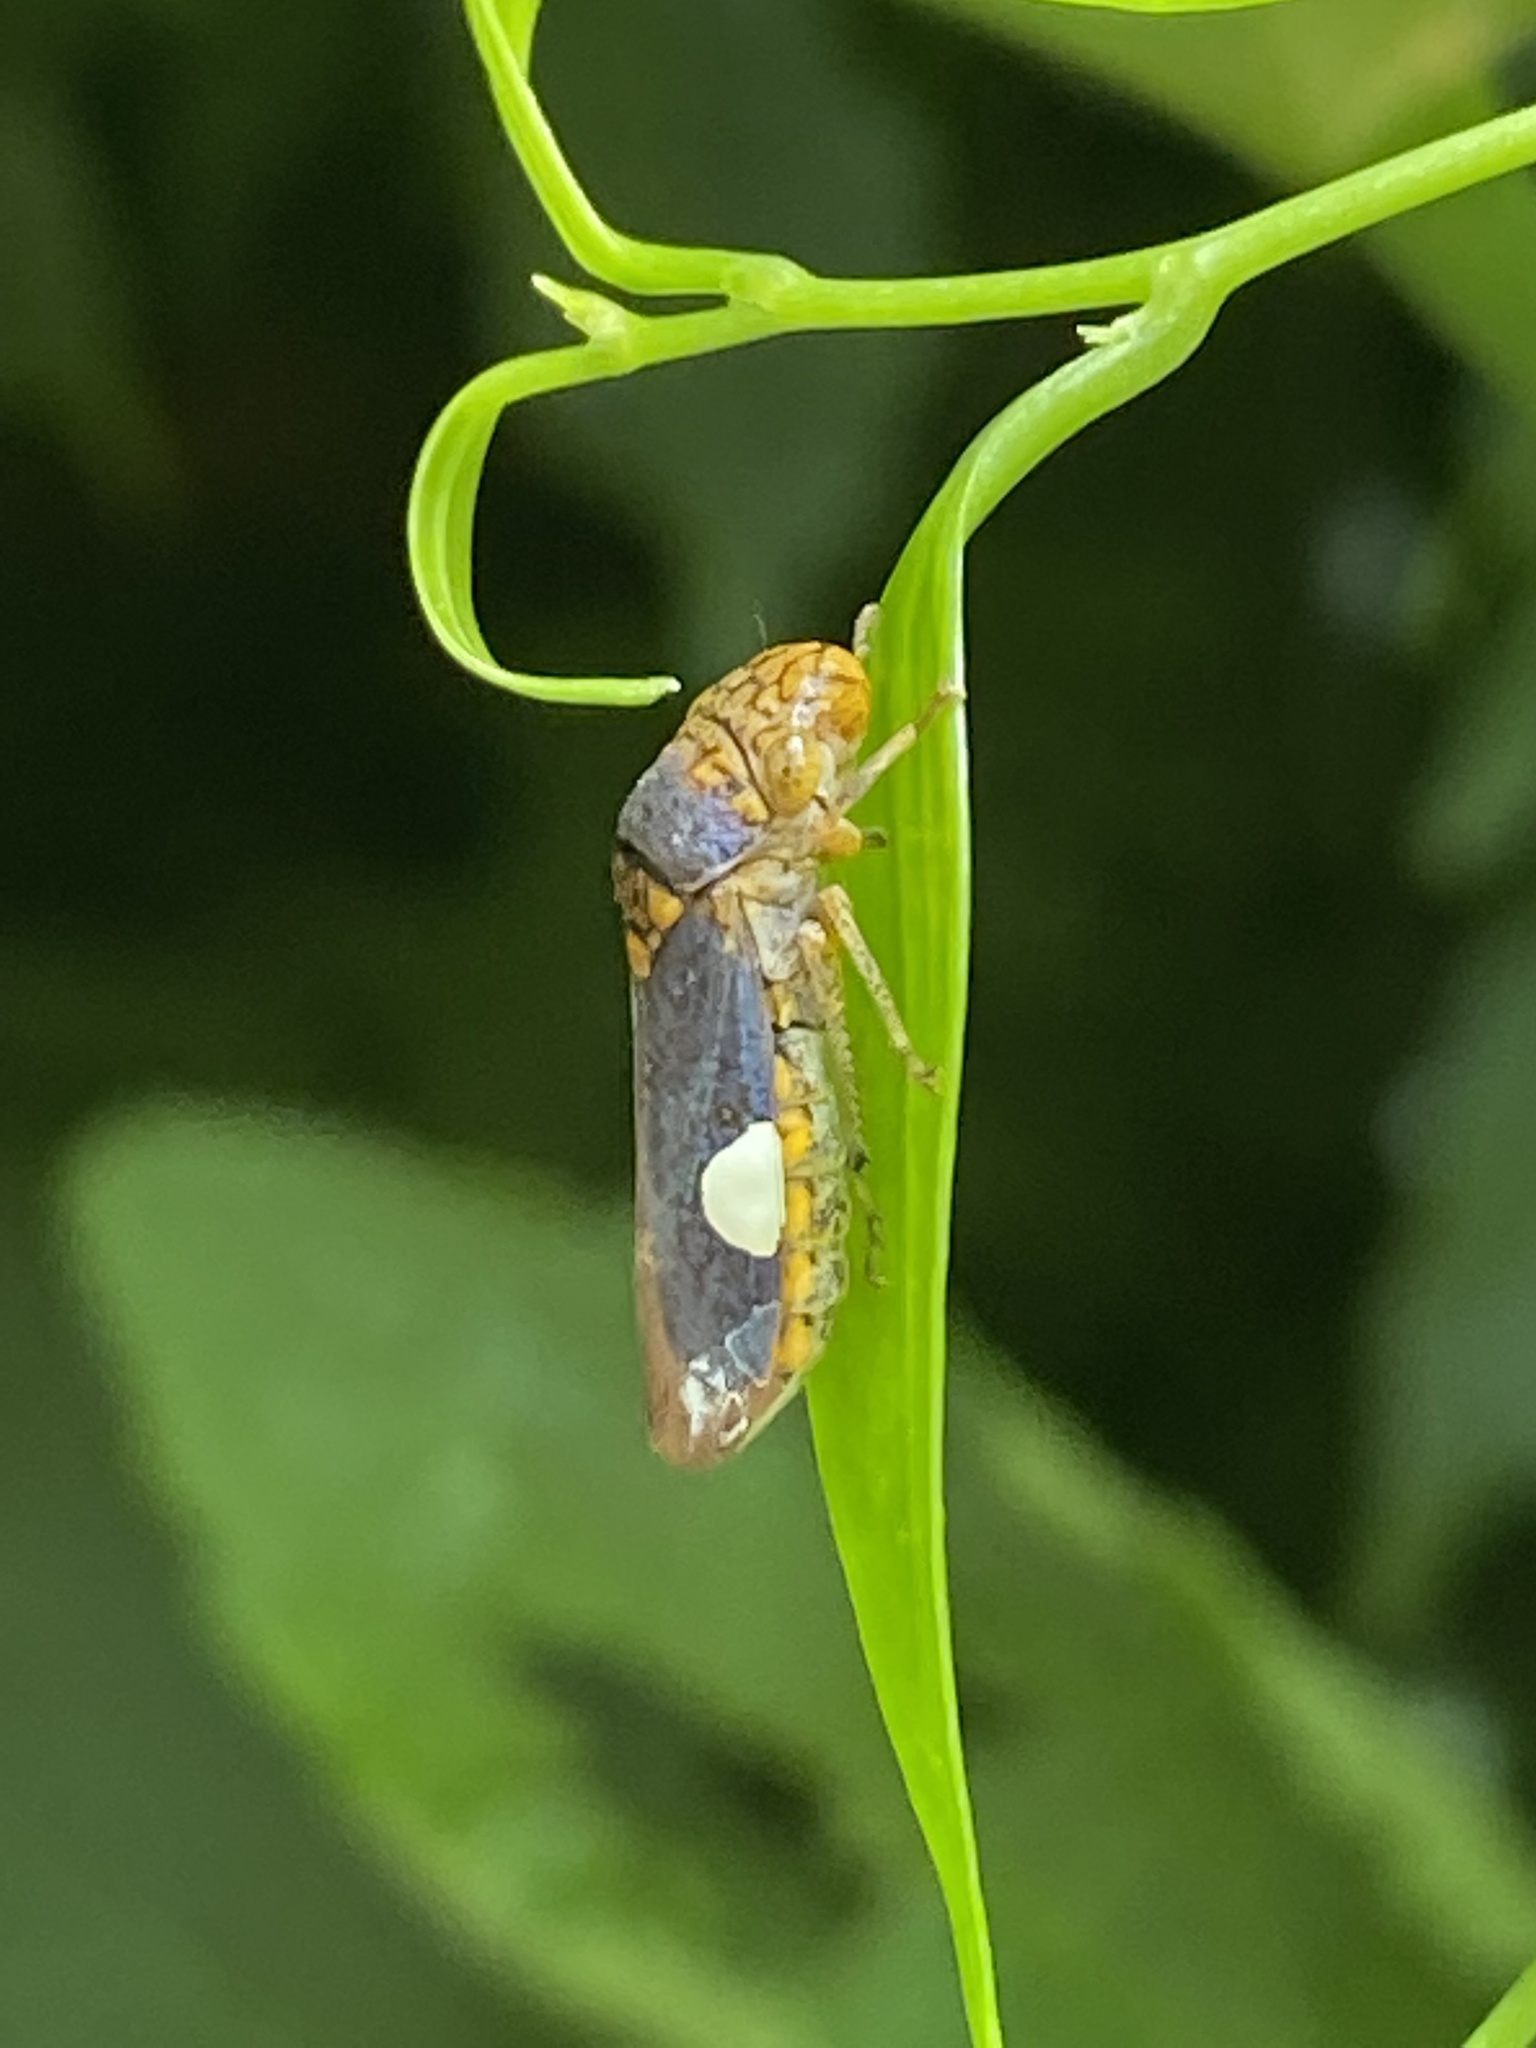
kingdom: Animalia
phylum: Arthropoda
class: Insecta
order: Hemiptera
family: Cicadellidae
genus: Oncometopia
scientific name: Oncometopia orbona
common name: Broad-headed sharpshooter
